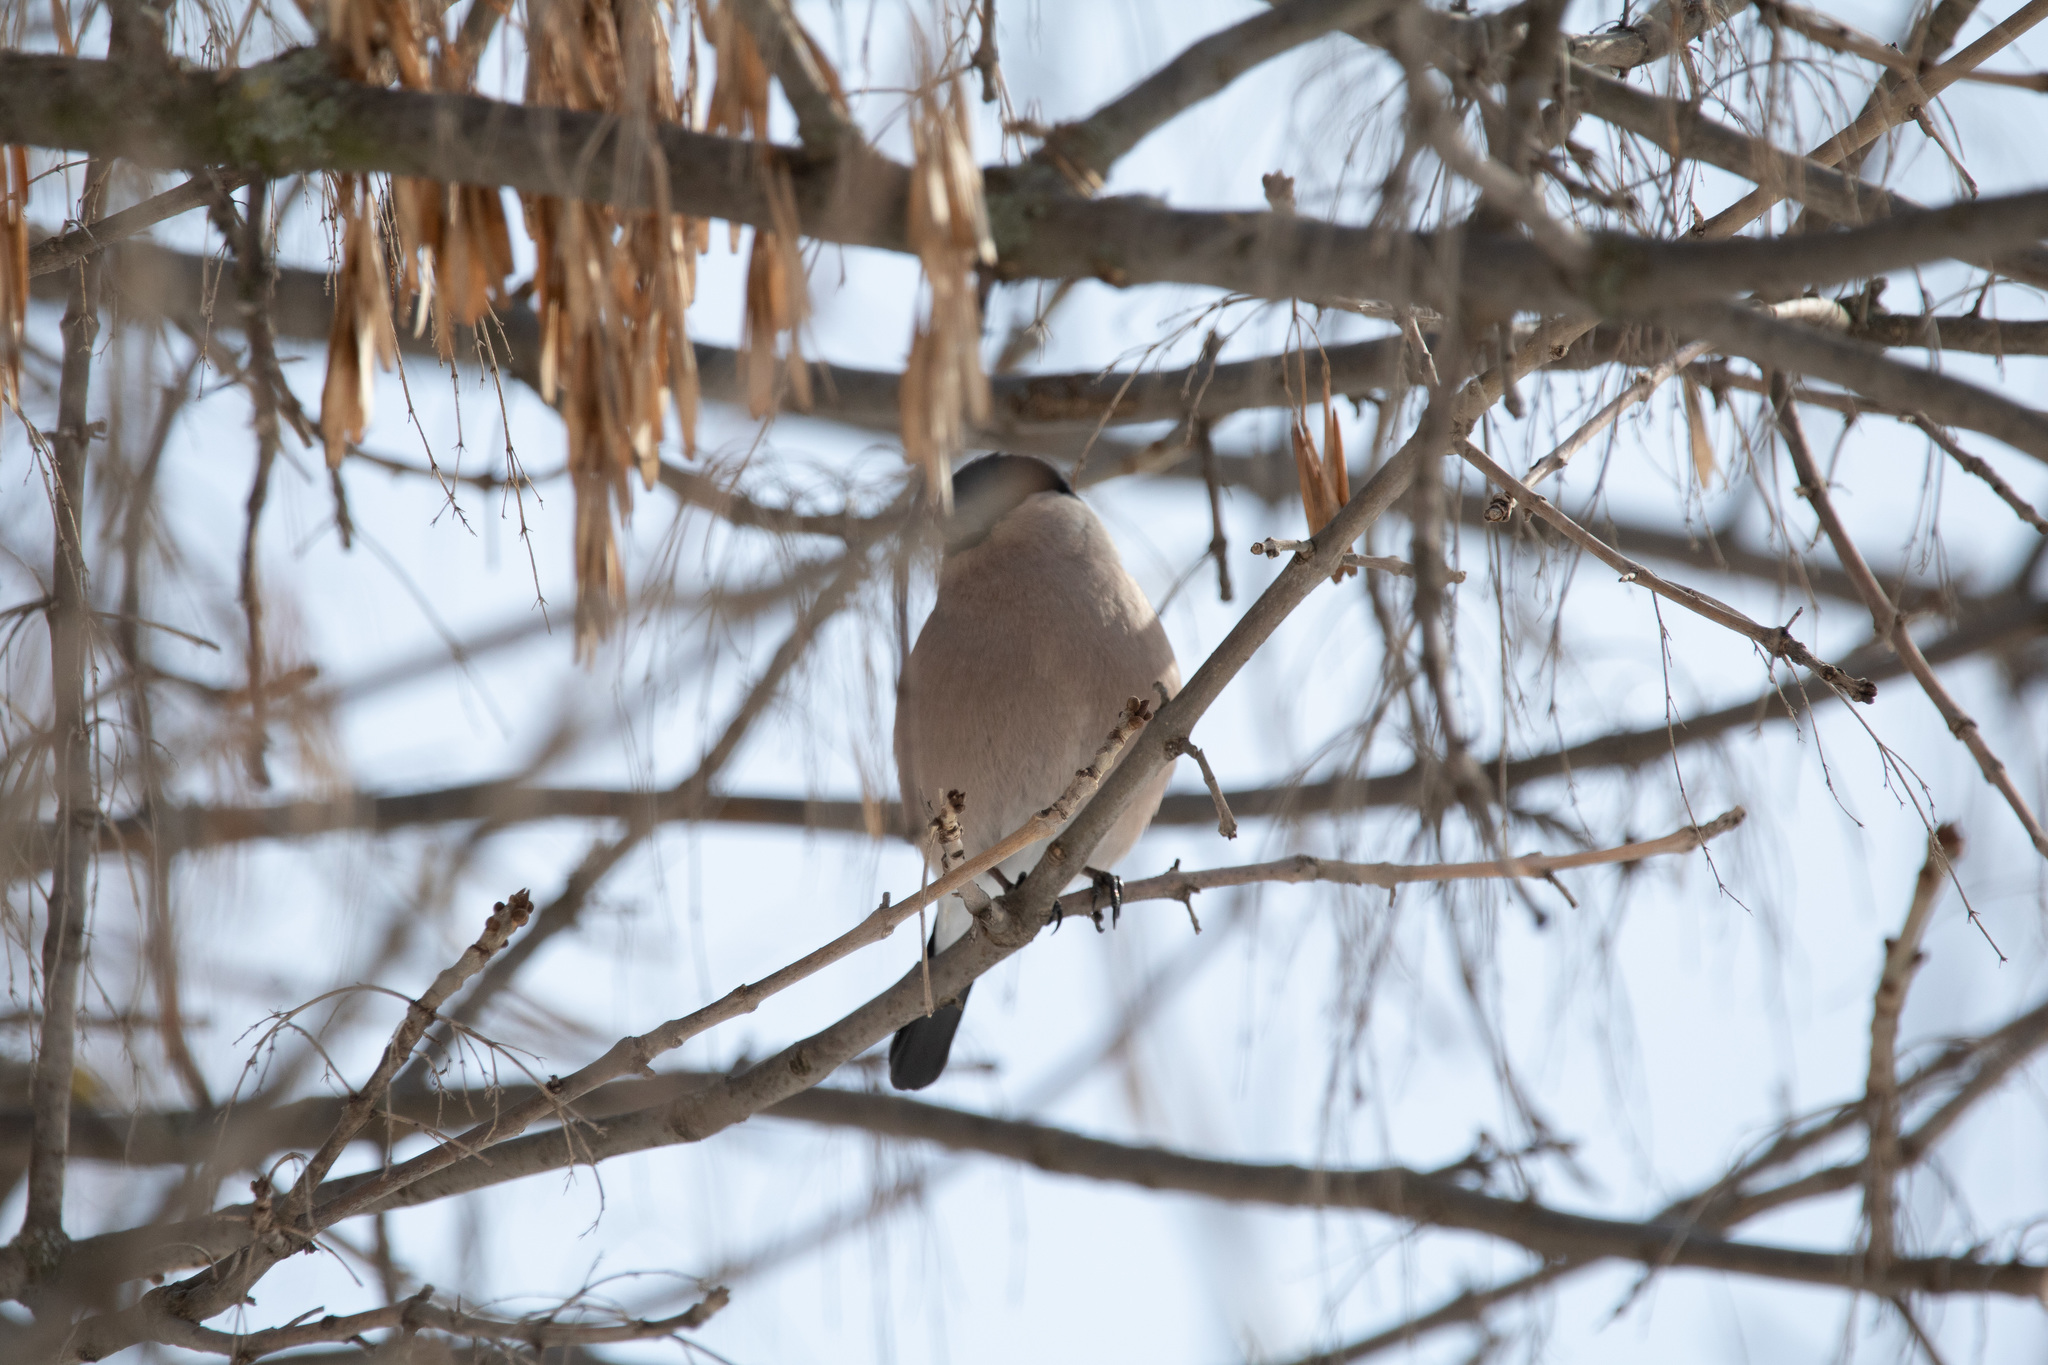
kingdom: Animalia
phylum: Chordata
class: Aves
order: Passeriformes
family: Fringillidae
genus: Pyrrhula
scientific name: Pyrrhula pyrrhula
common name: Eurasian bullfinch
